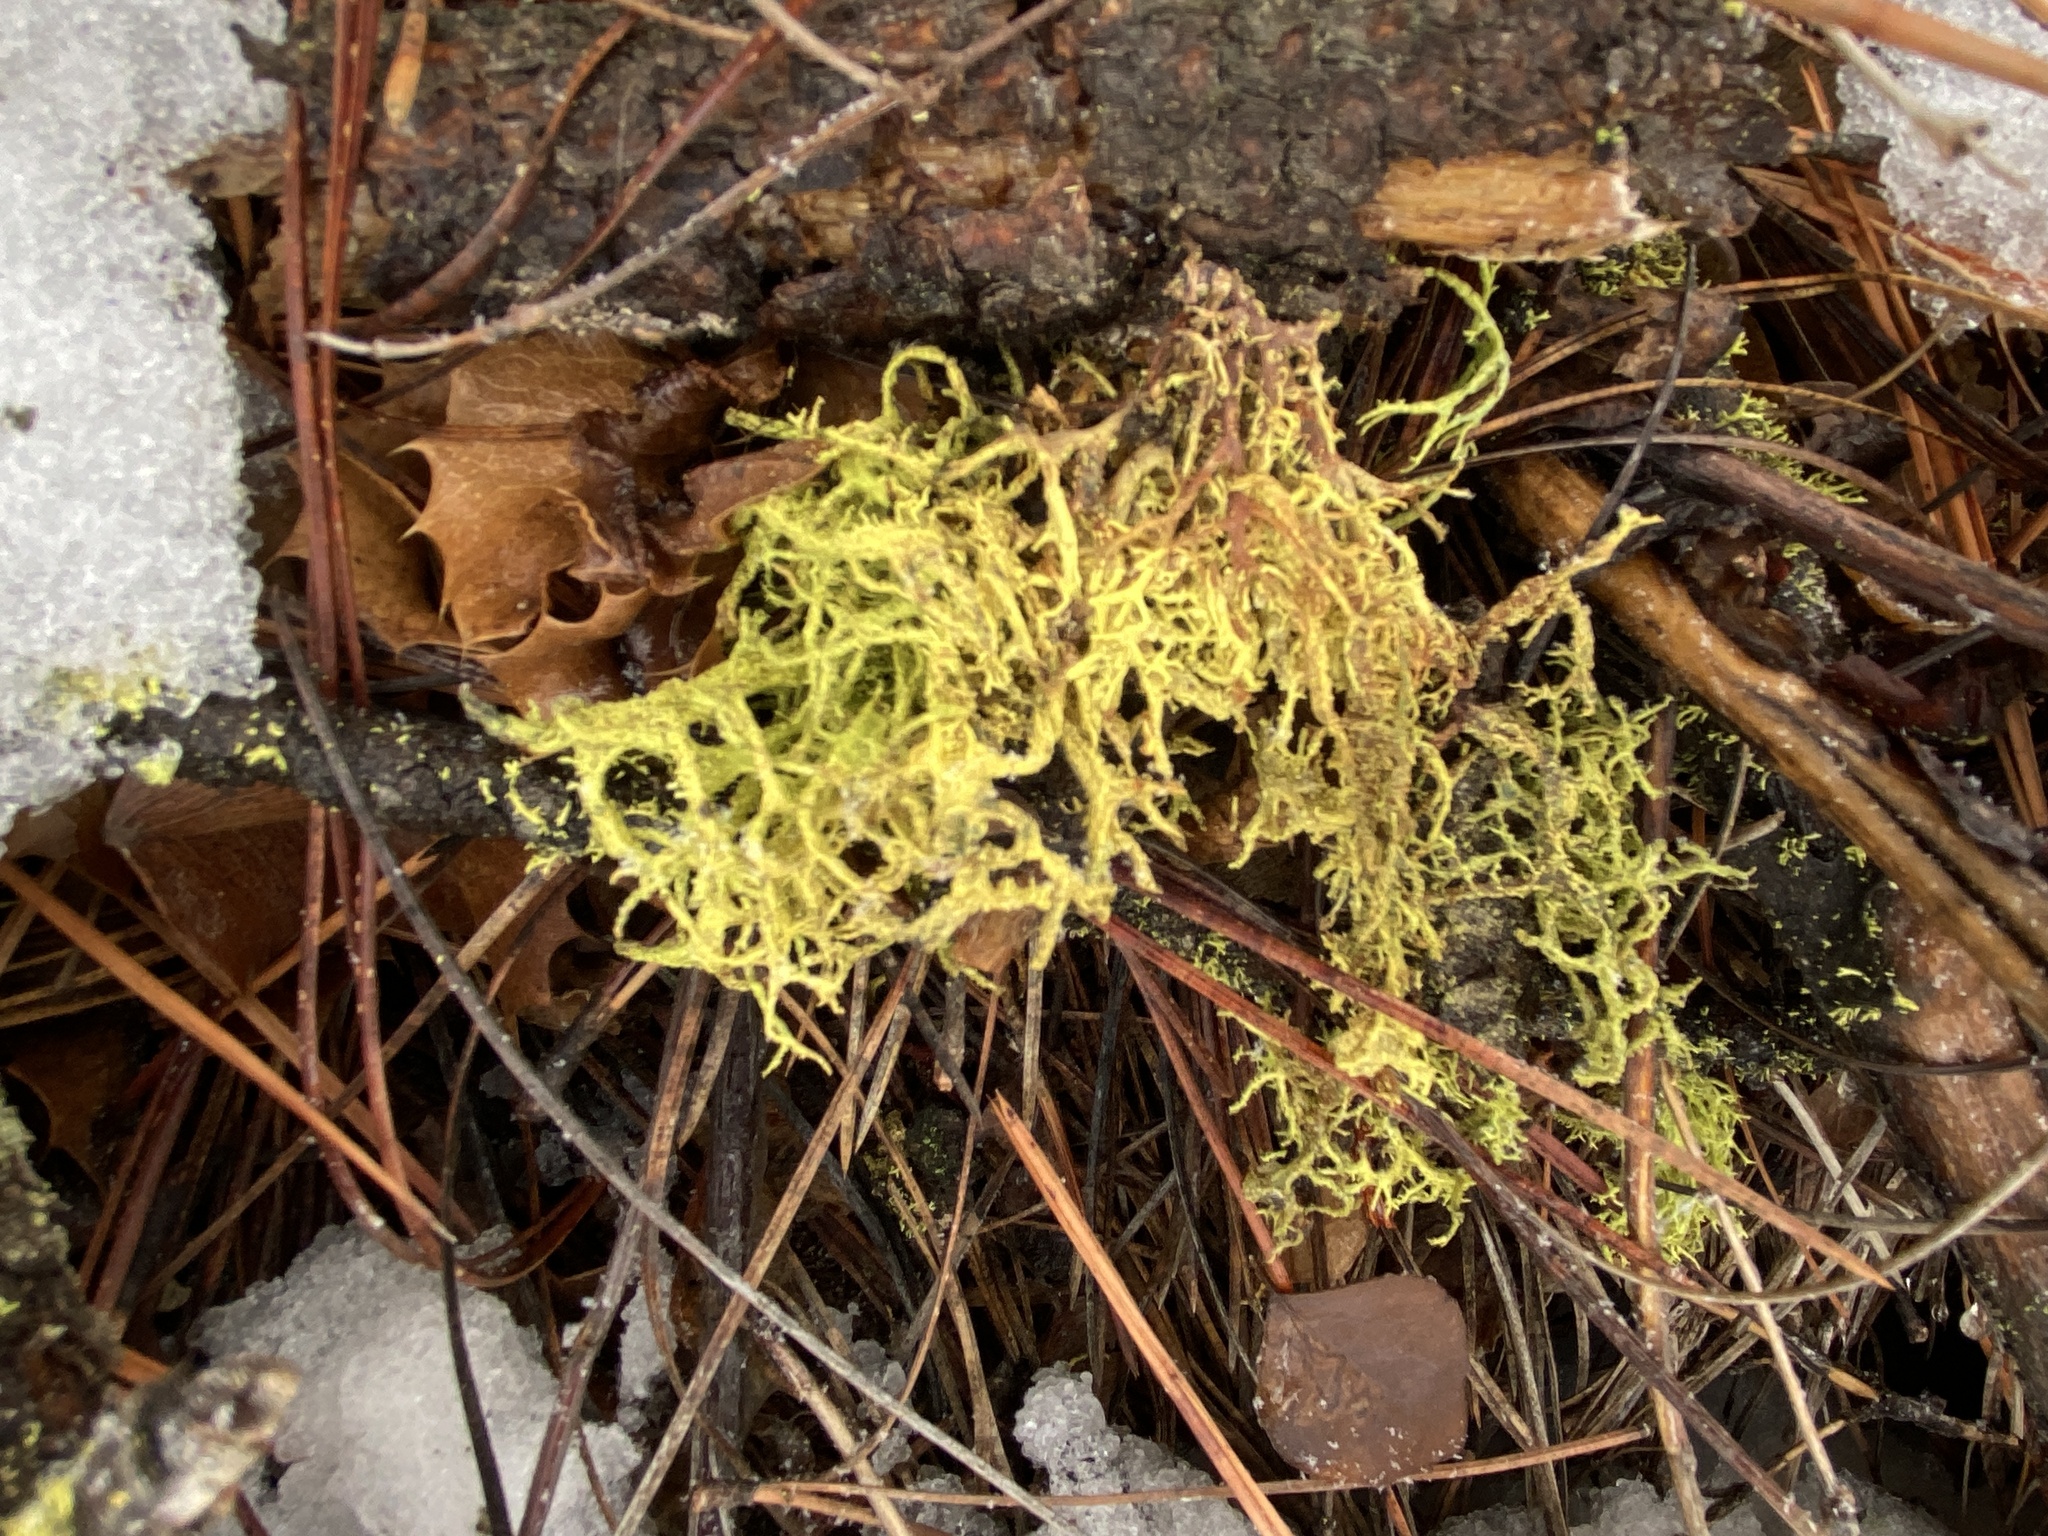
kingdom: Fungi
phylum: Ascomycota
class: Lecanoromycetes
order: Lecanorales
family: Parmeliaceae
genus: Letharia
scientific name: Letharia vulpina
